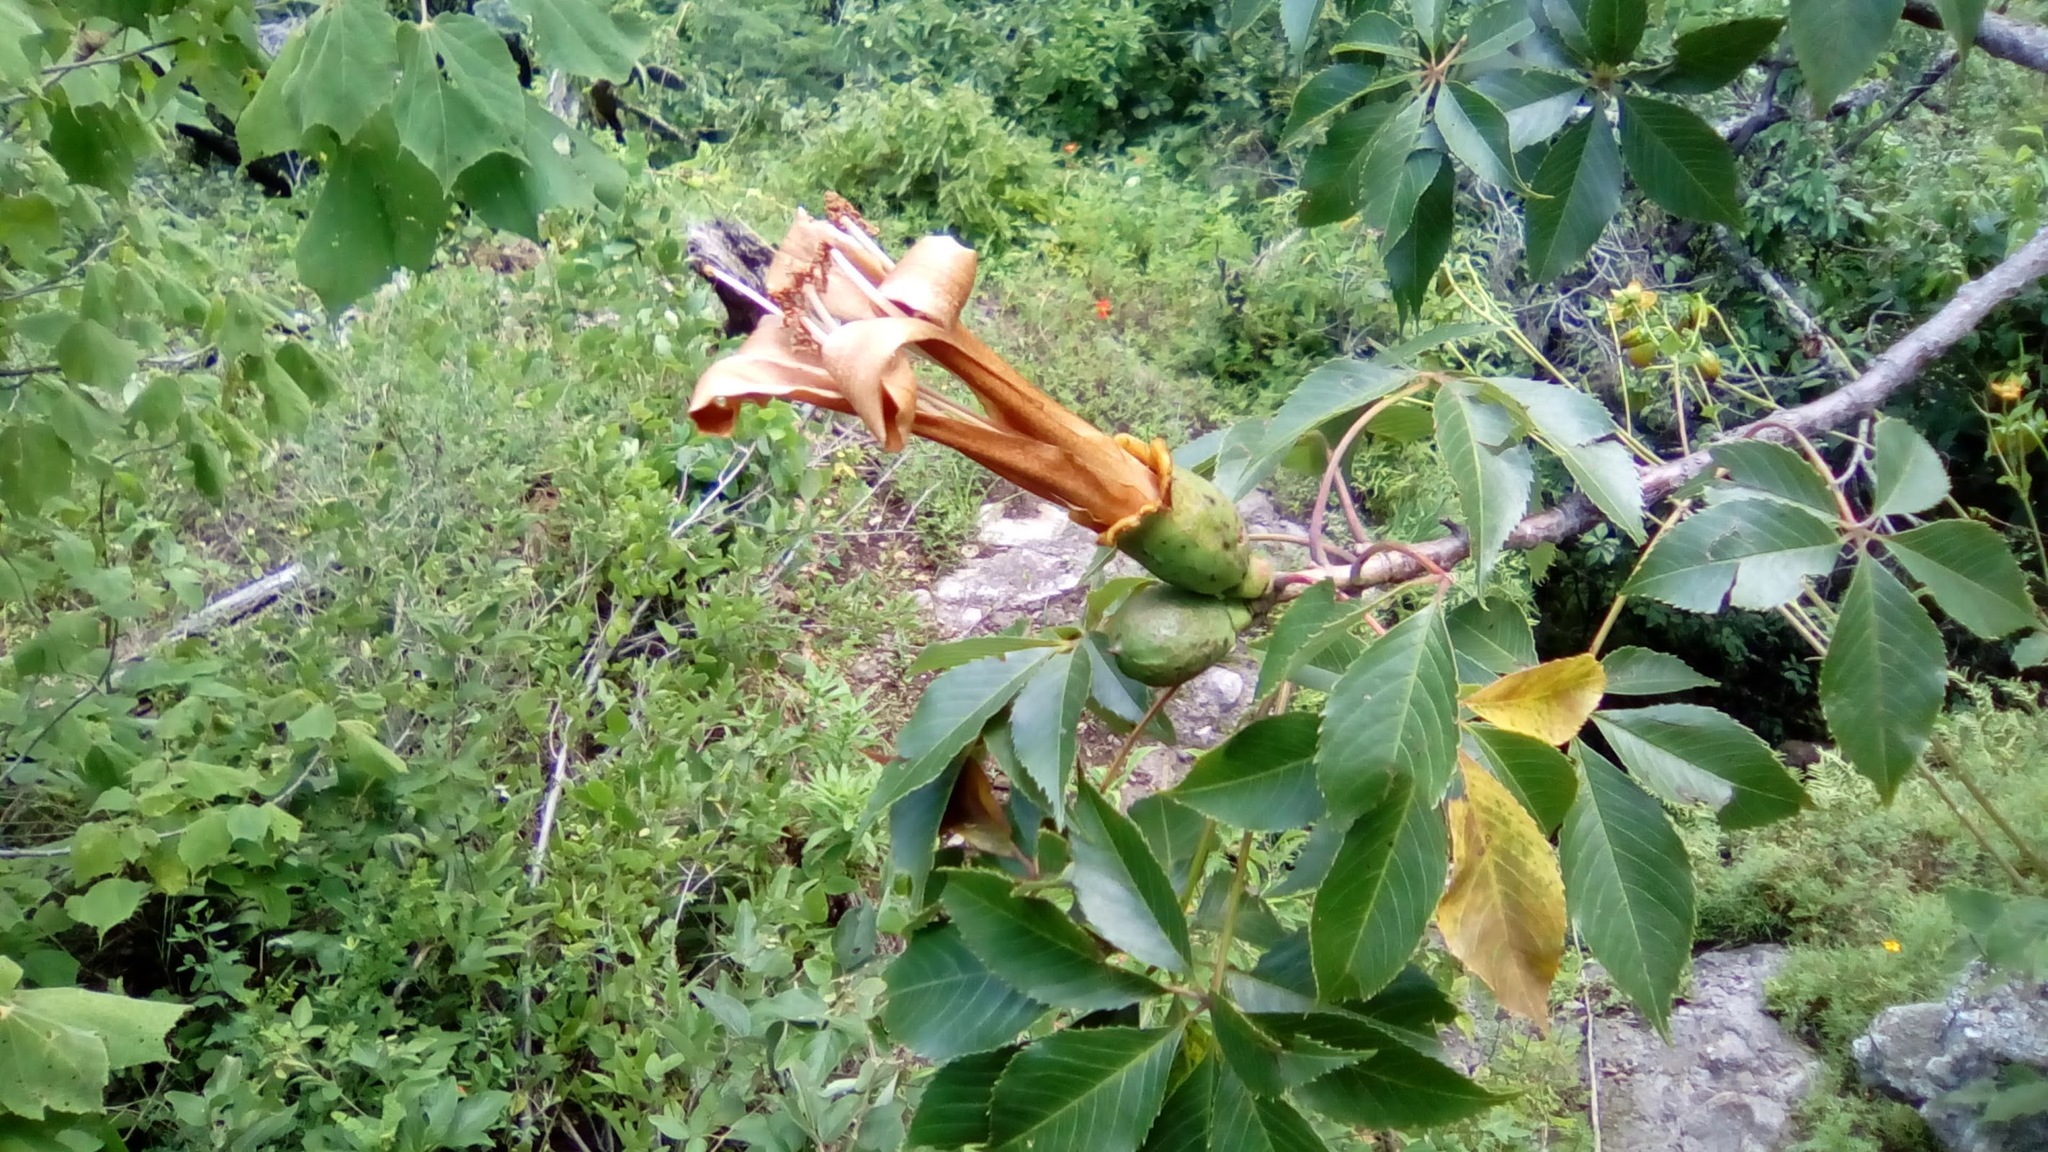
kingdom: Plantae
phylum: Tracheophyta
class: Magnoliopsida
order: Malvales
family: Malvaceae
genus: Ceiba
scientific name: Ceiba aesculifolia
